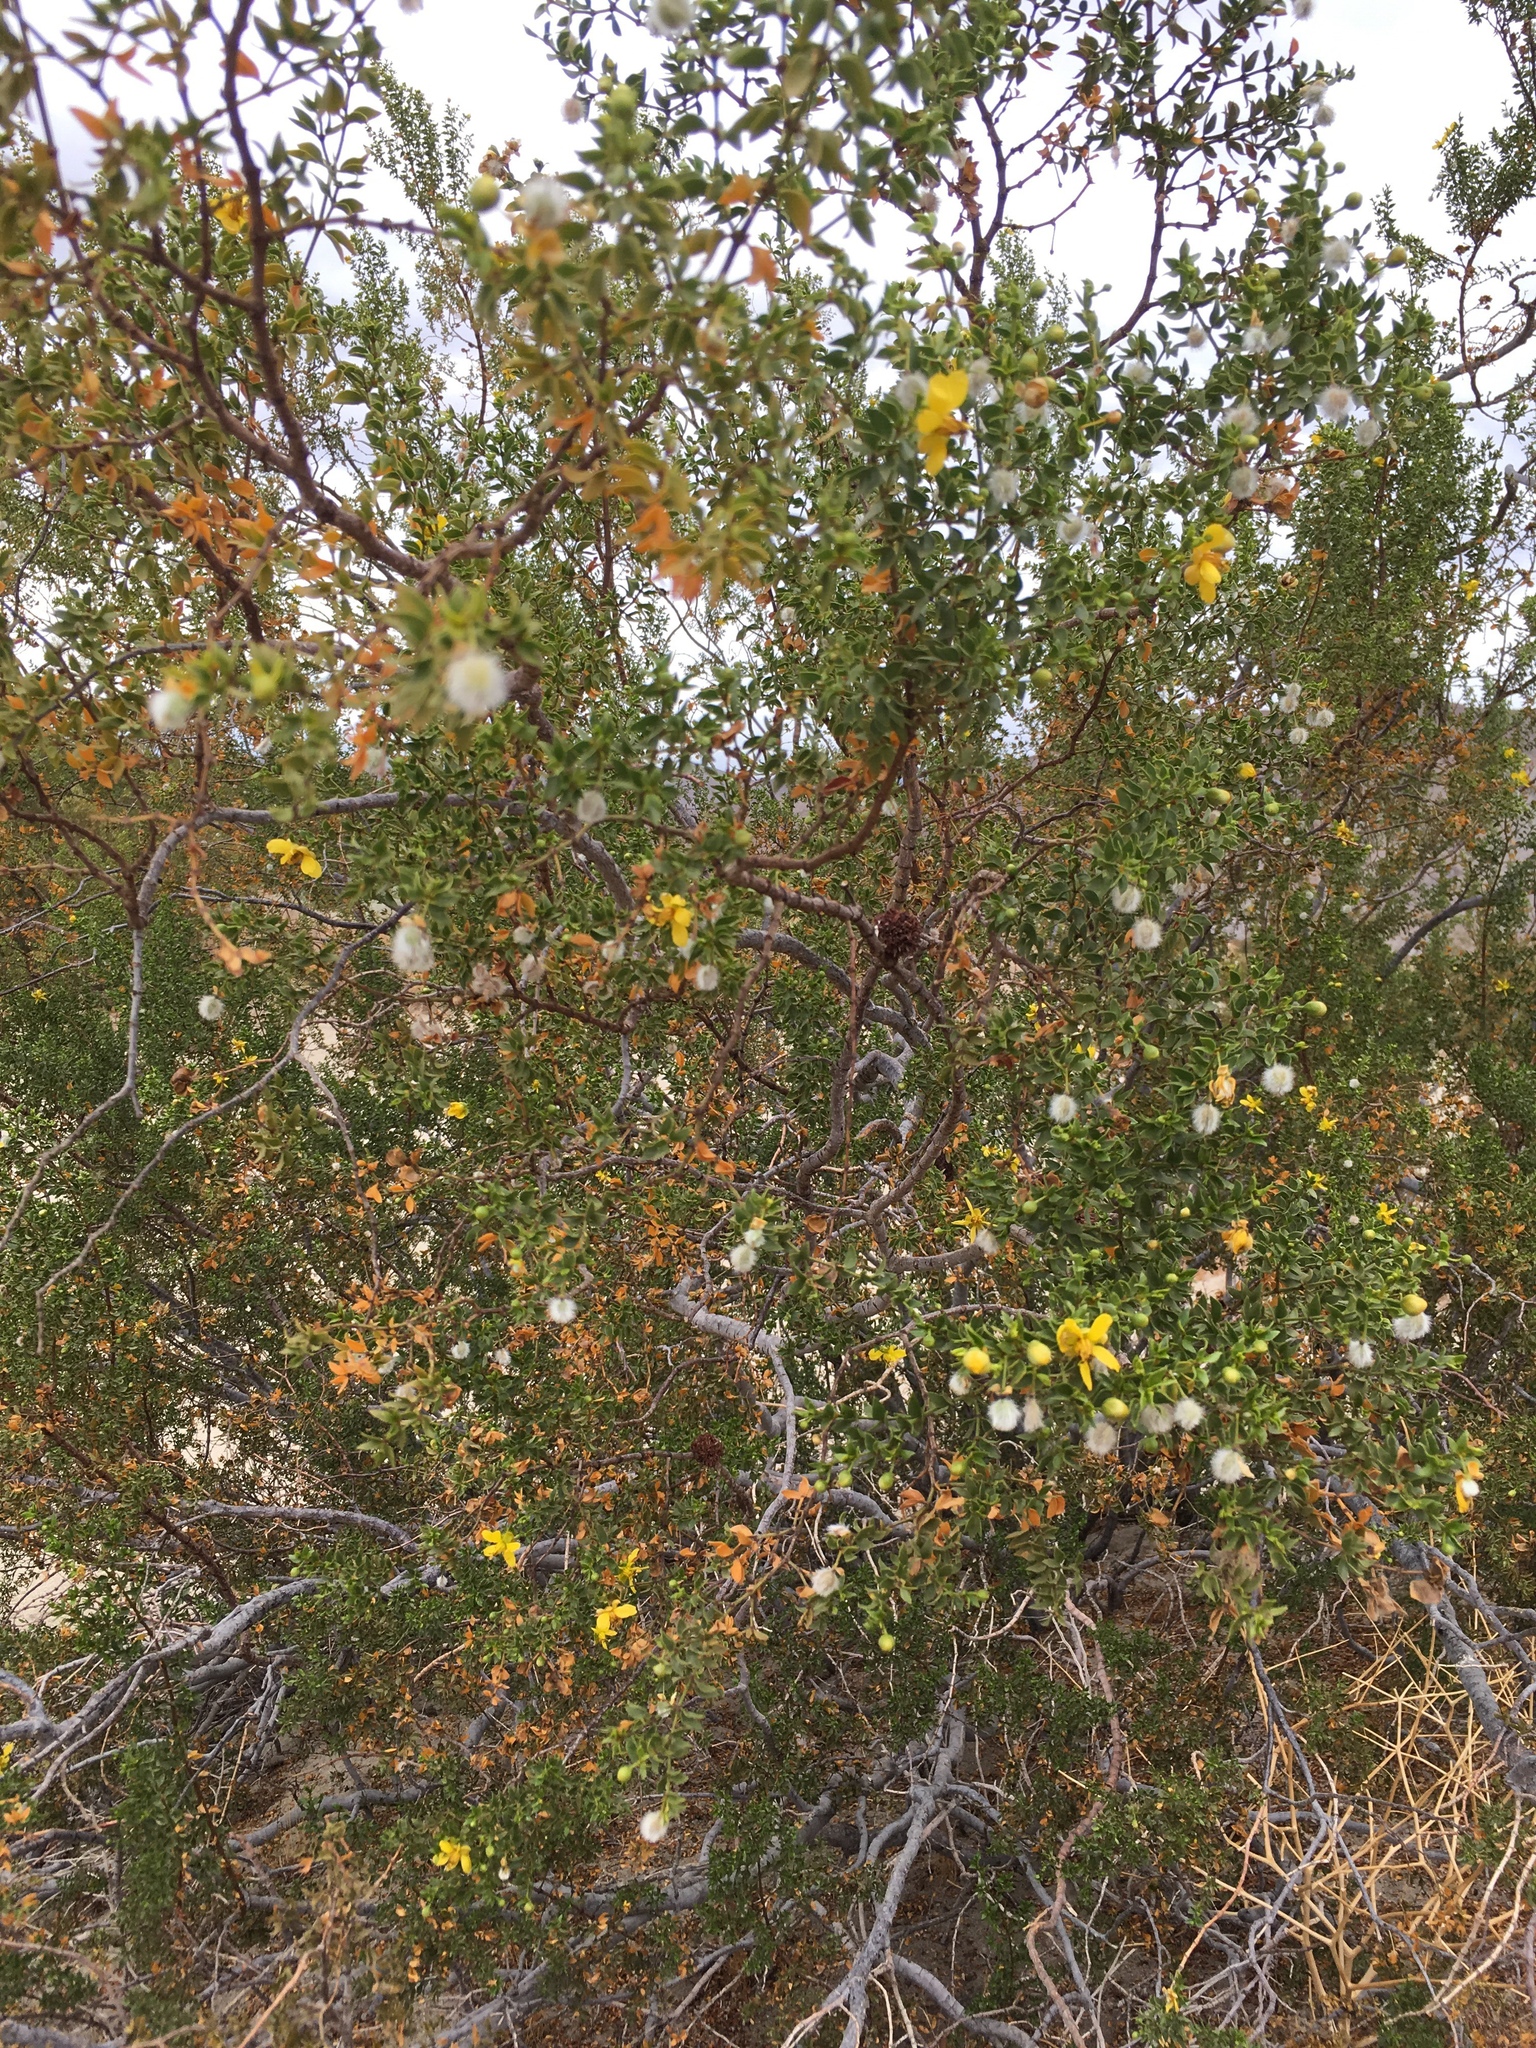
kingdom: Animalia
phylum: Arthropoda
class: Insecta
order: Diptera
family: Cecidomyiidae
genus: Asphondylia
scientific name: Asphondylia auripila
